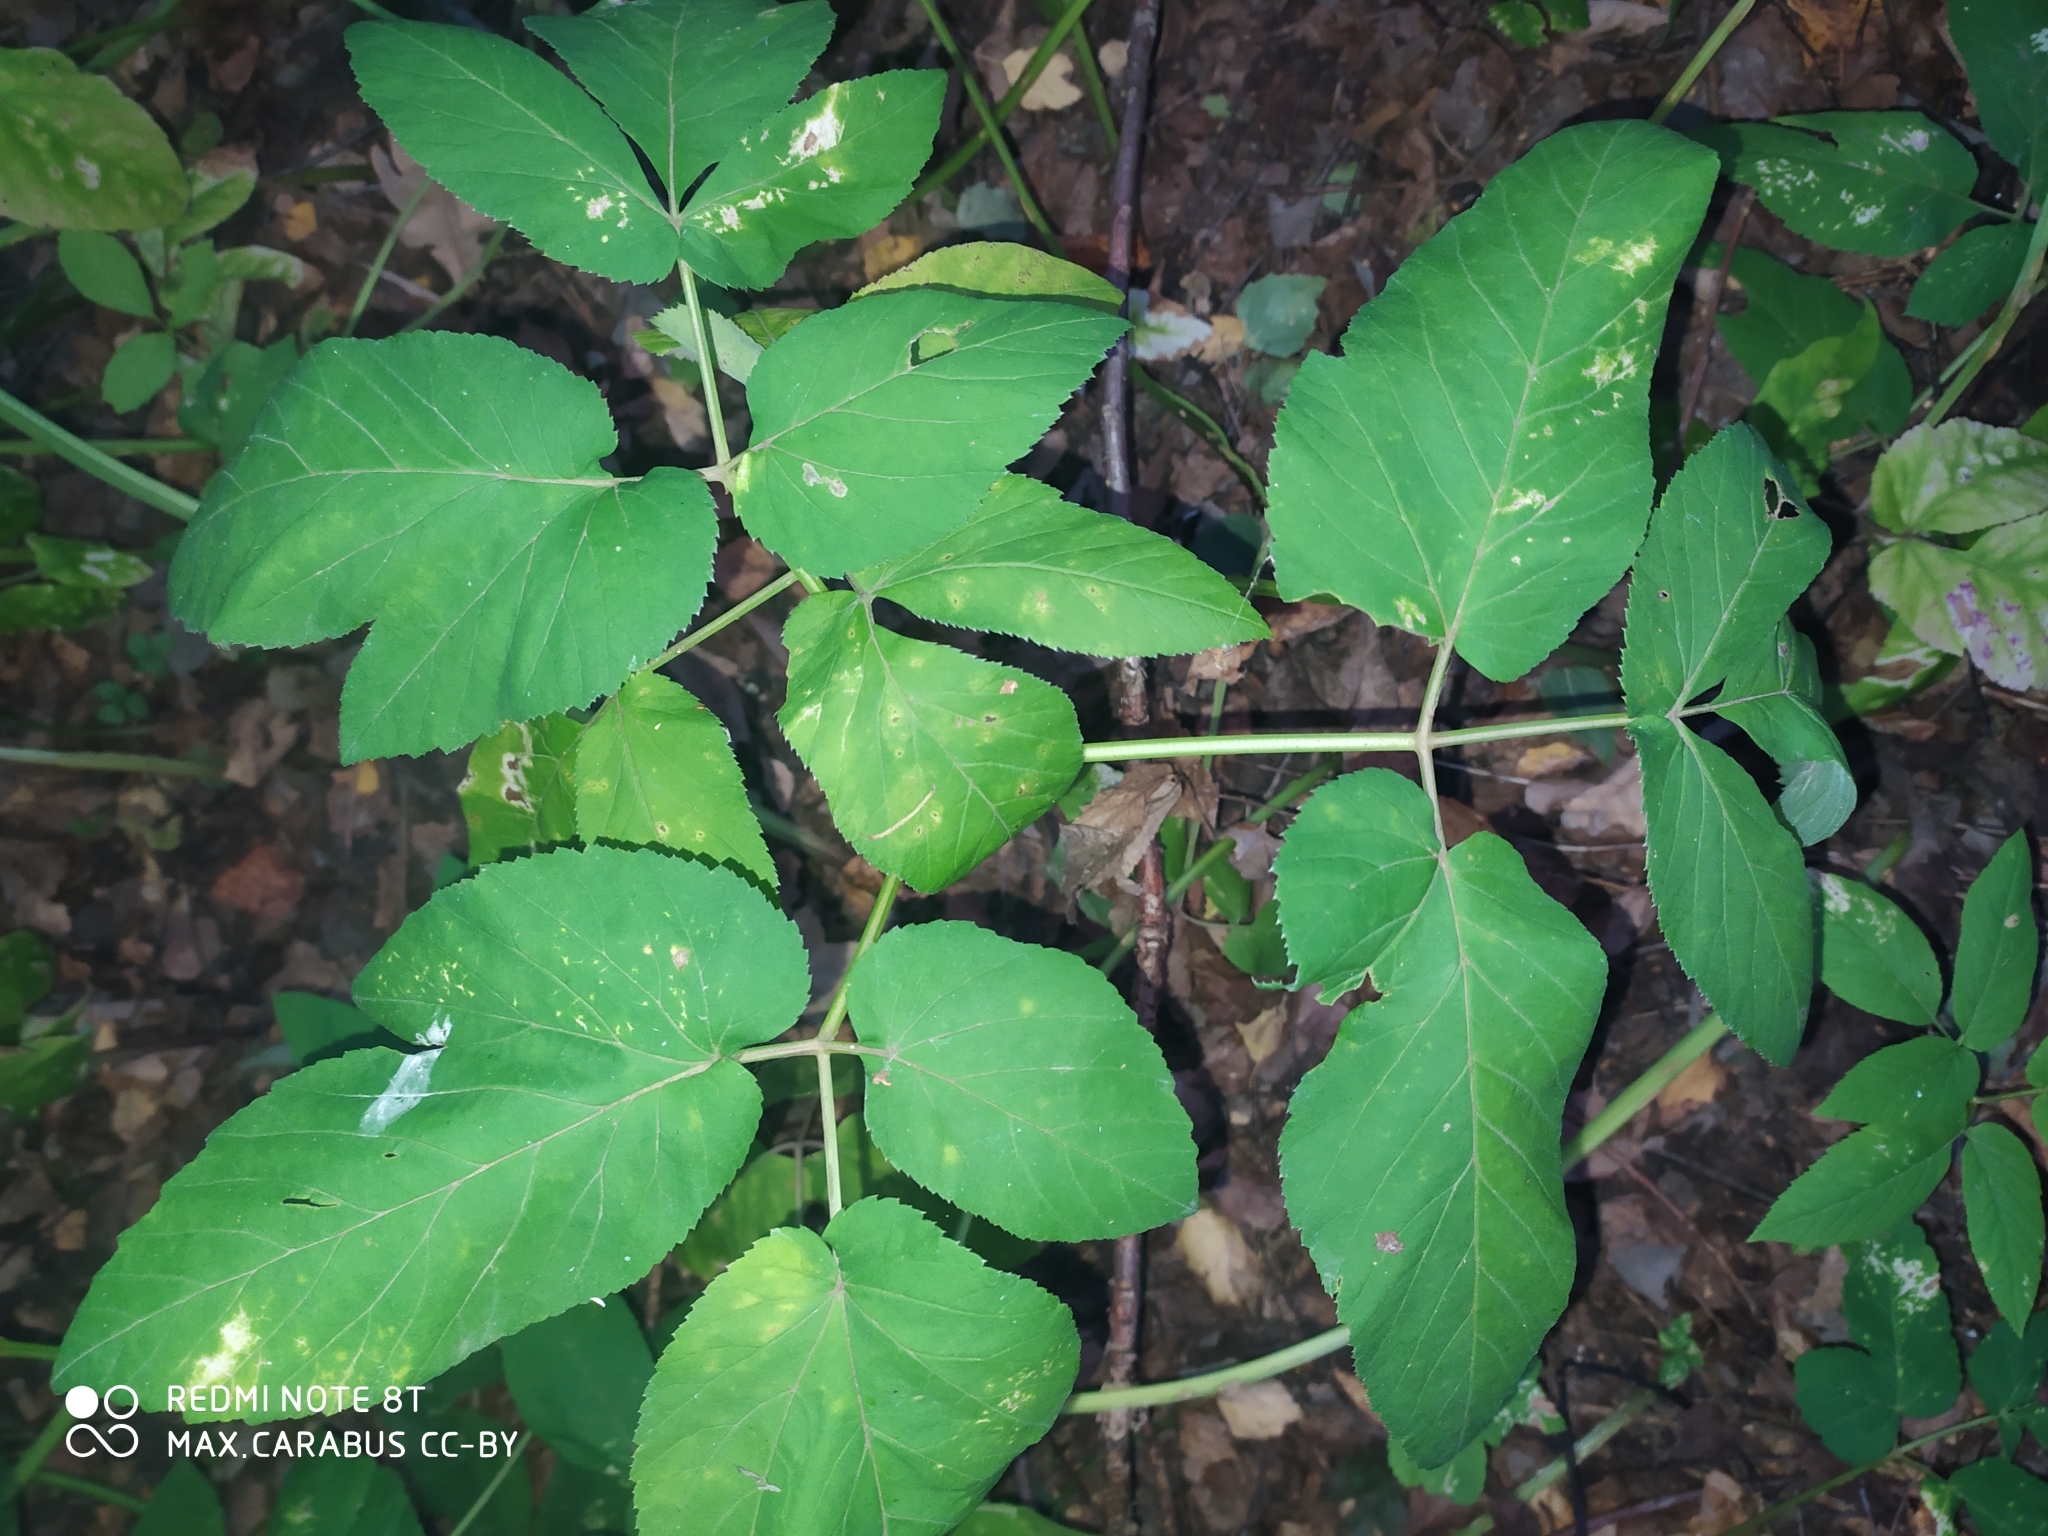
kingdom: Plantae
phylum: Tracheophyta
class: Magnoliopsida
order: Apiales
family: Apiaceae
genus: Aegopodium
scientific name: Aegopodium podagraria
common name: Ground-elder
